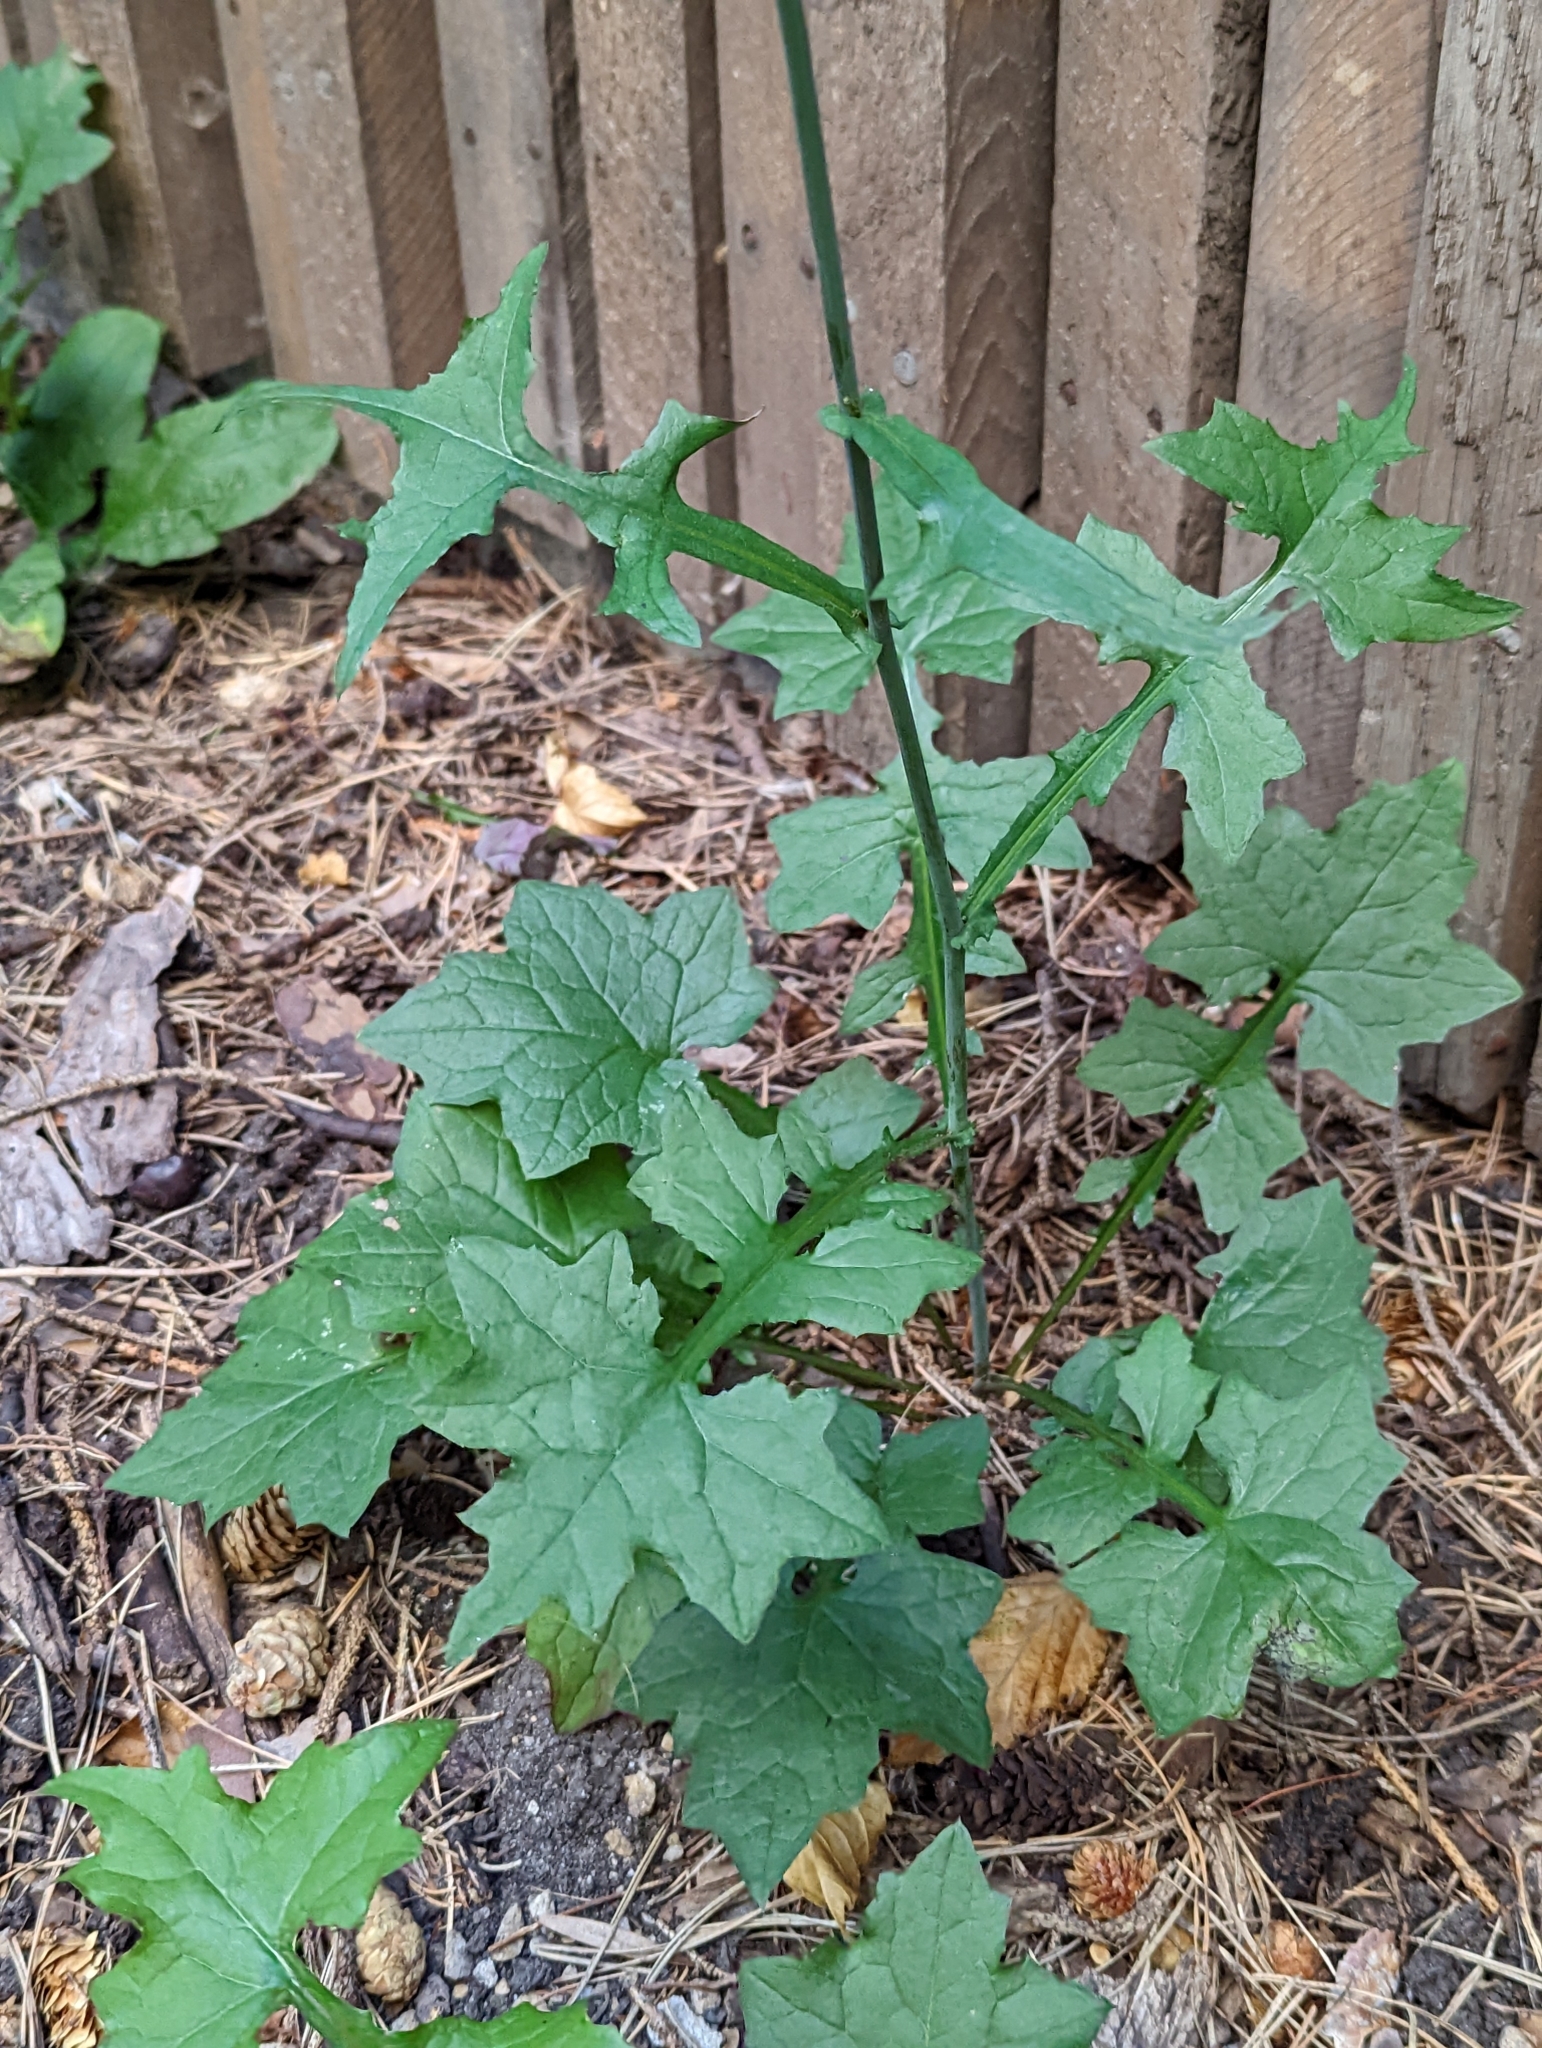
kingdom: Plantae
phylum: Tracheophyta
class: Magnoliopsida
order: Asterales
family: Asteraceae
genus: Mycelis
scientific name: Mycelis muralis
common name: Wall lettuce
